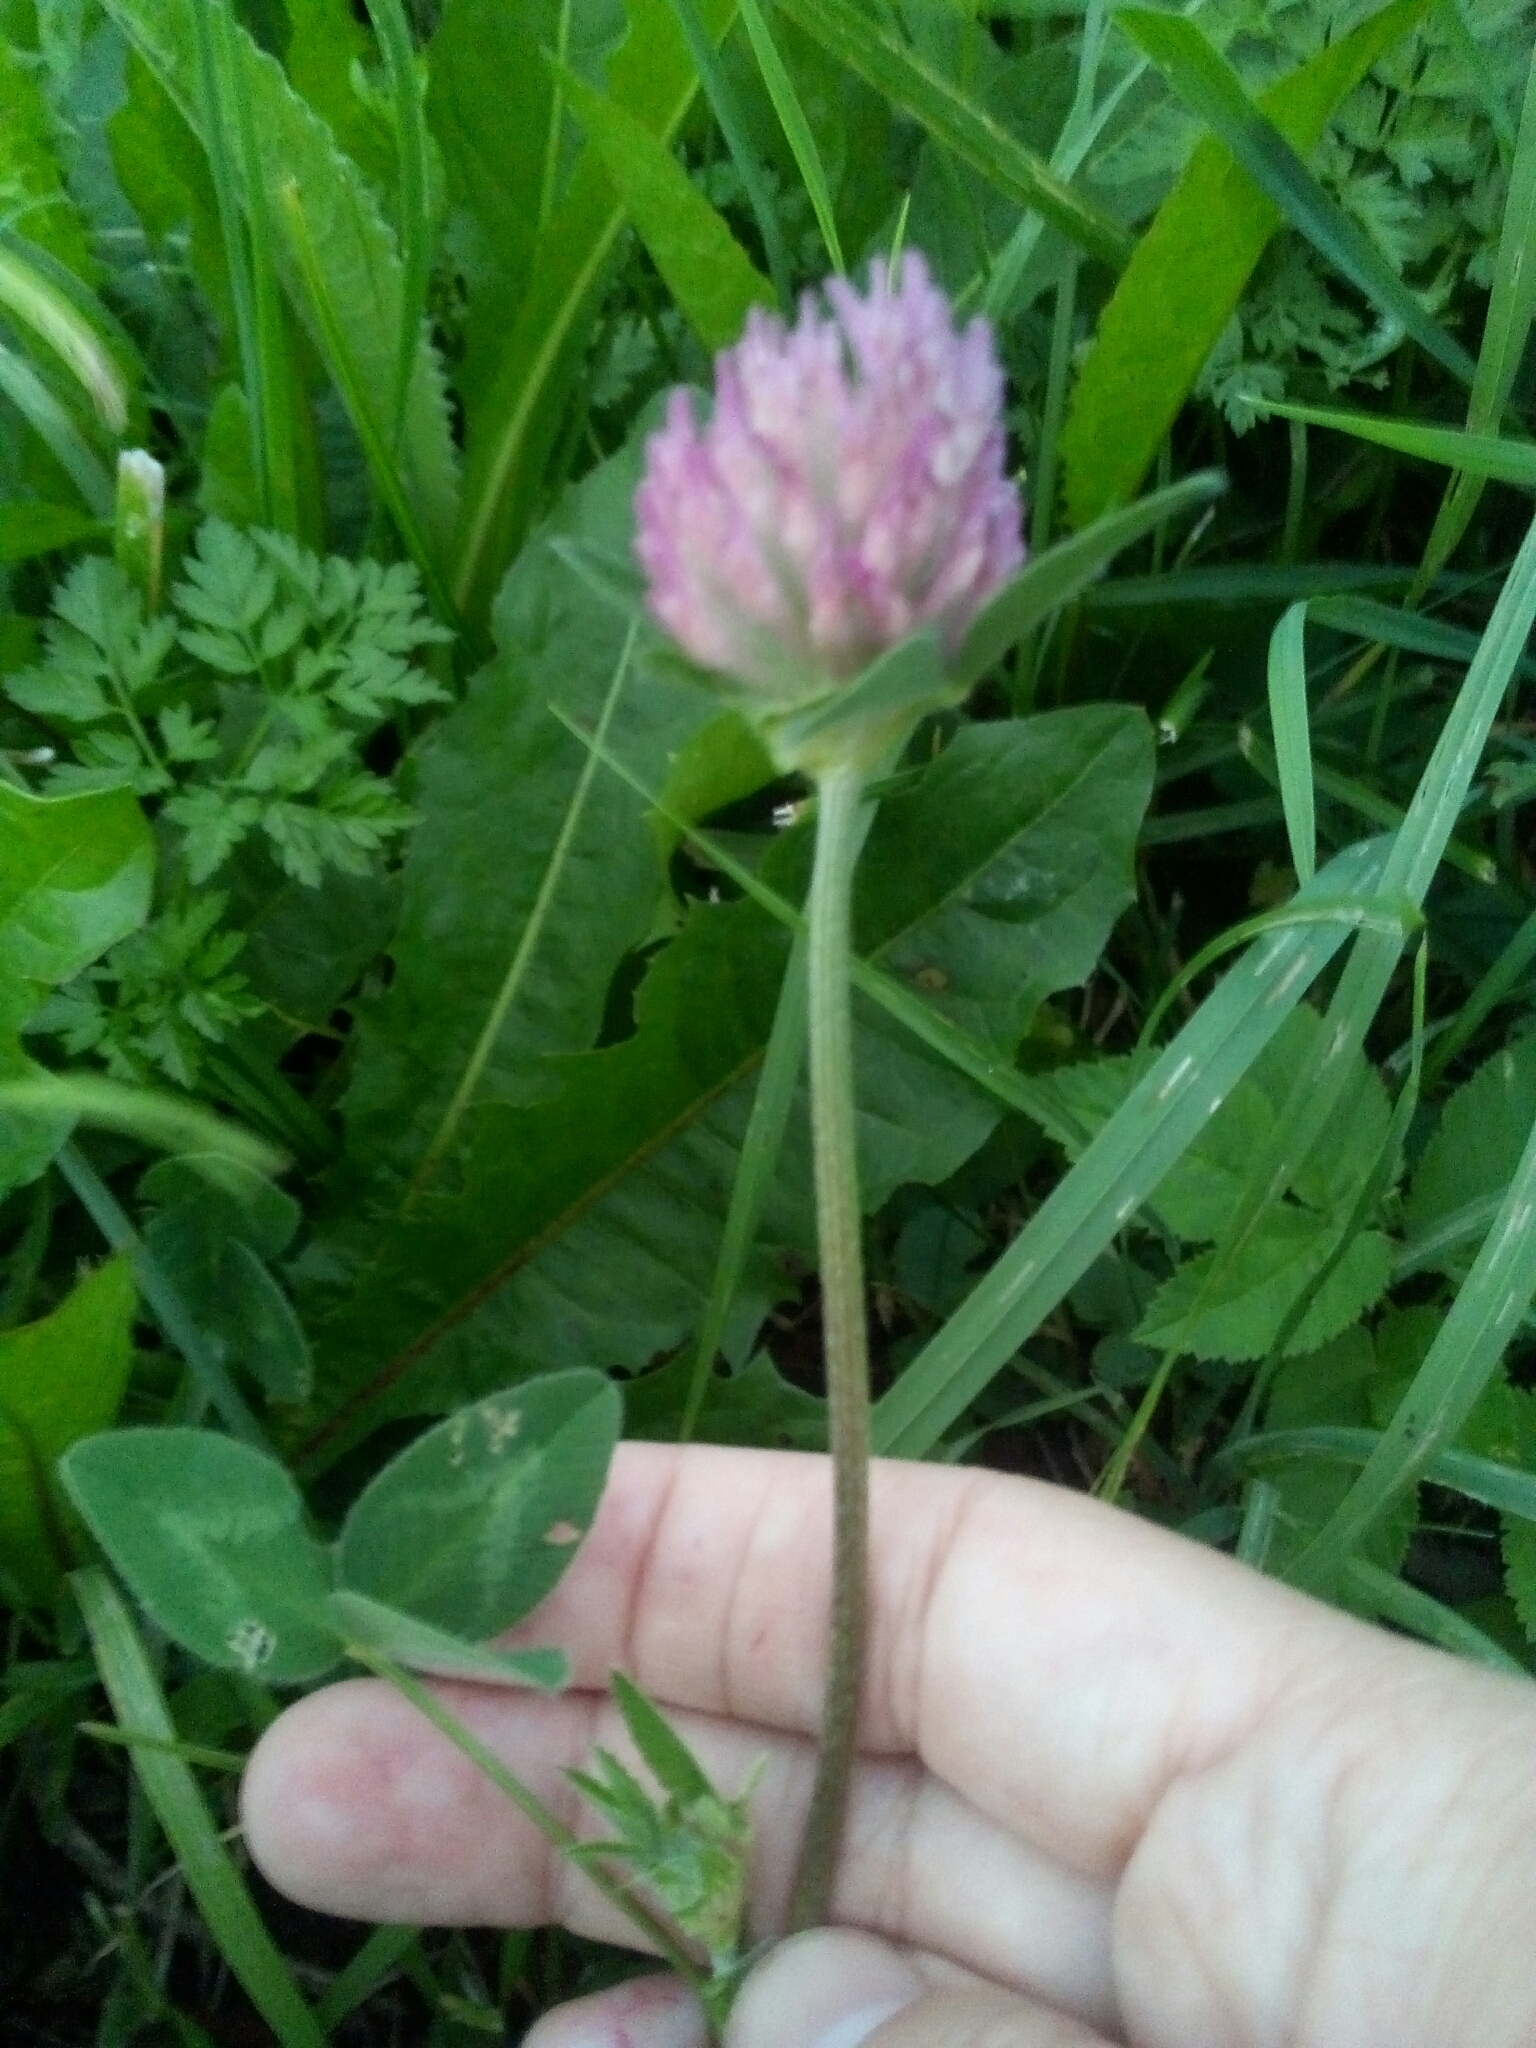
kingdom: Plantae
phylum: Tracheophyta
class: Magnoliopsida
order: Fabales
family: Fabaceae
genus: Trifolium
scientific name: Trifolium pratense
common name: Red clover
